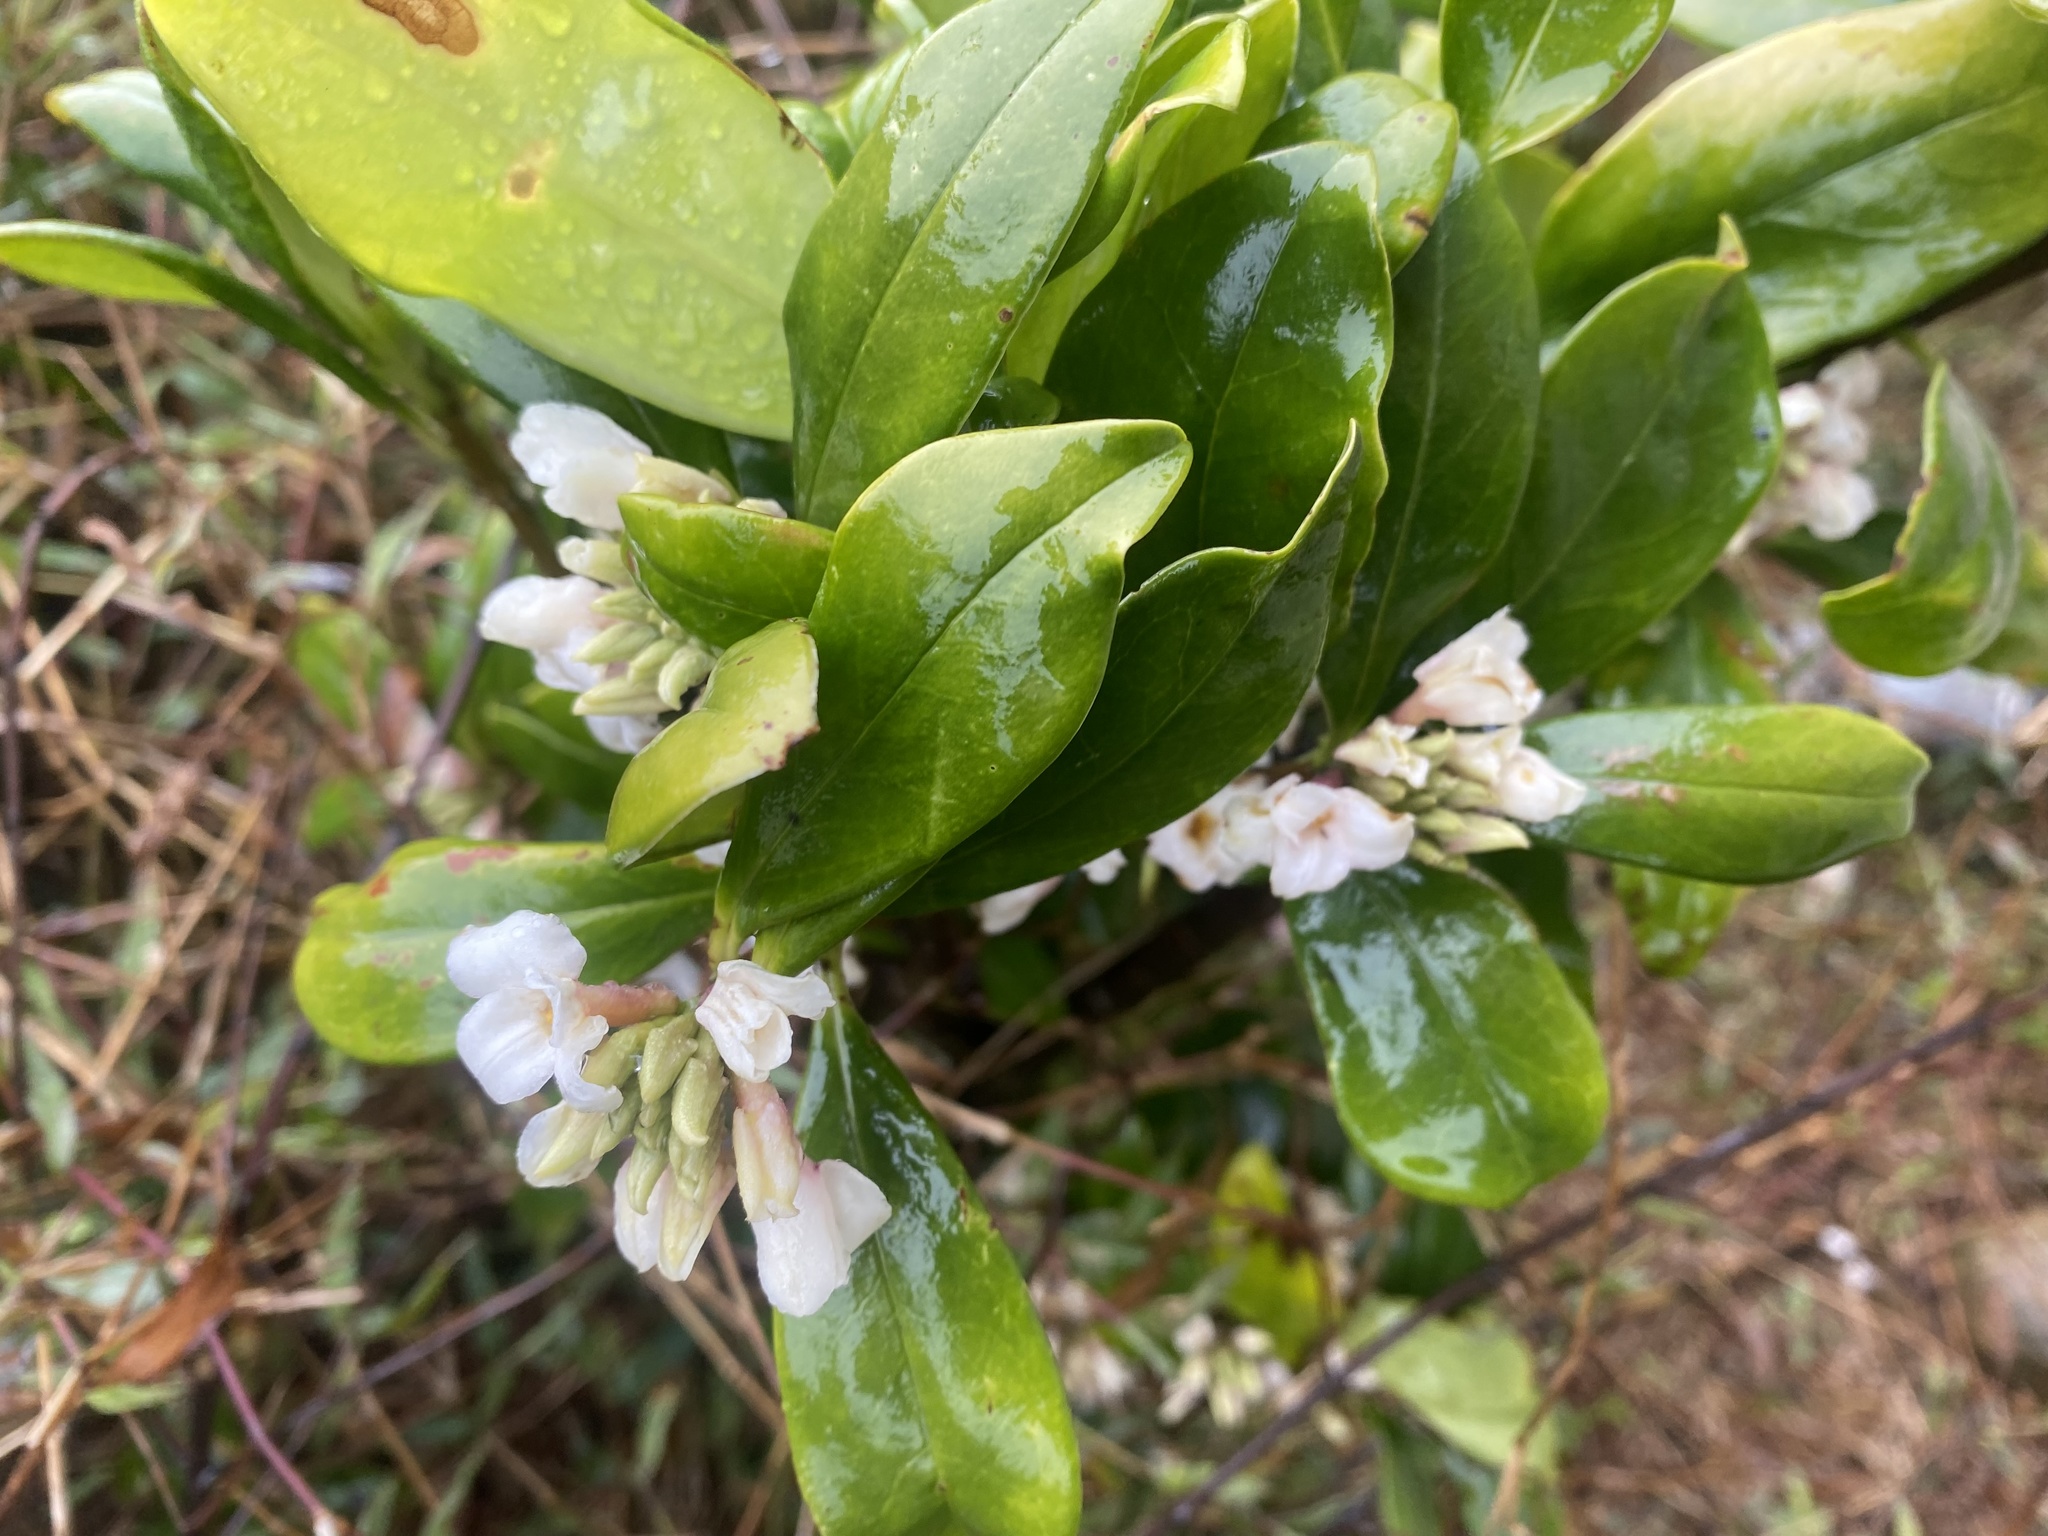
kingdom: Plantae
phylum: Tracheophyta
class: Magnoliopsida
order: Malvales
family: Thymelaeaceae
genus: Daphne
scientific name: Daphne papyracea
